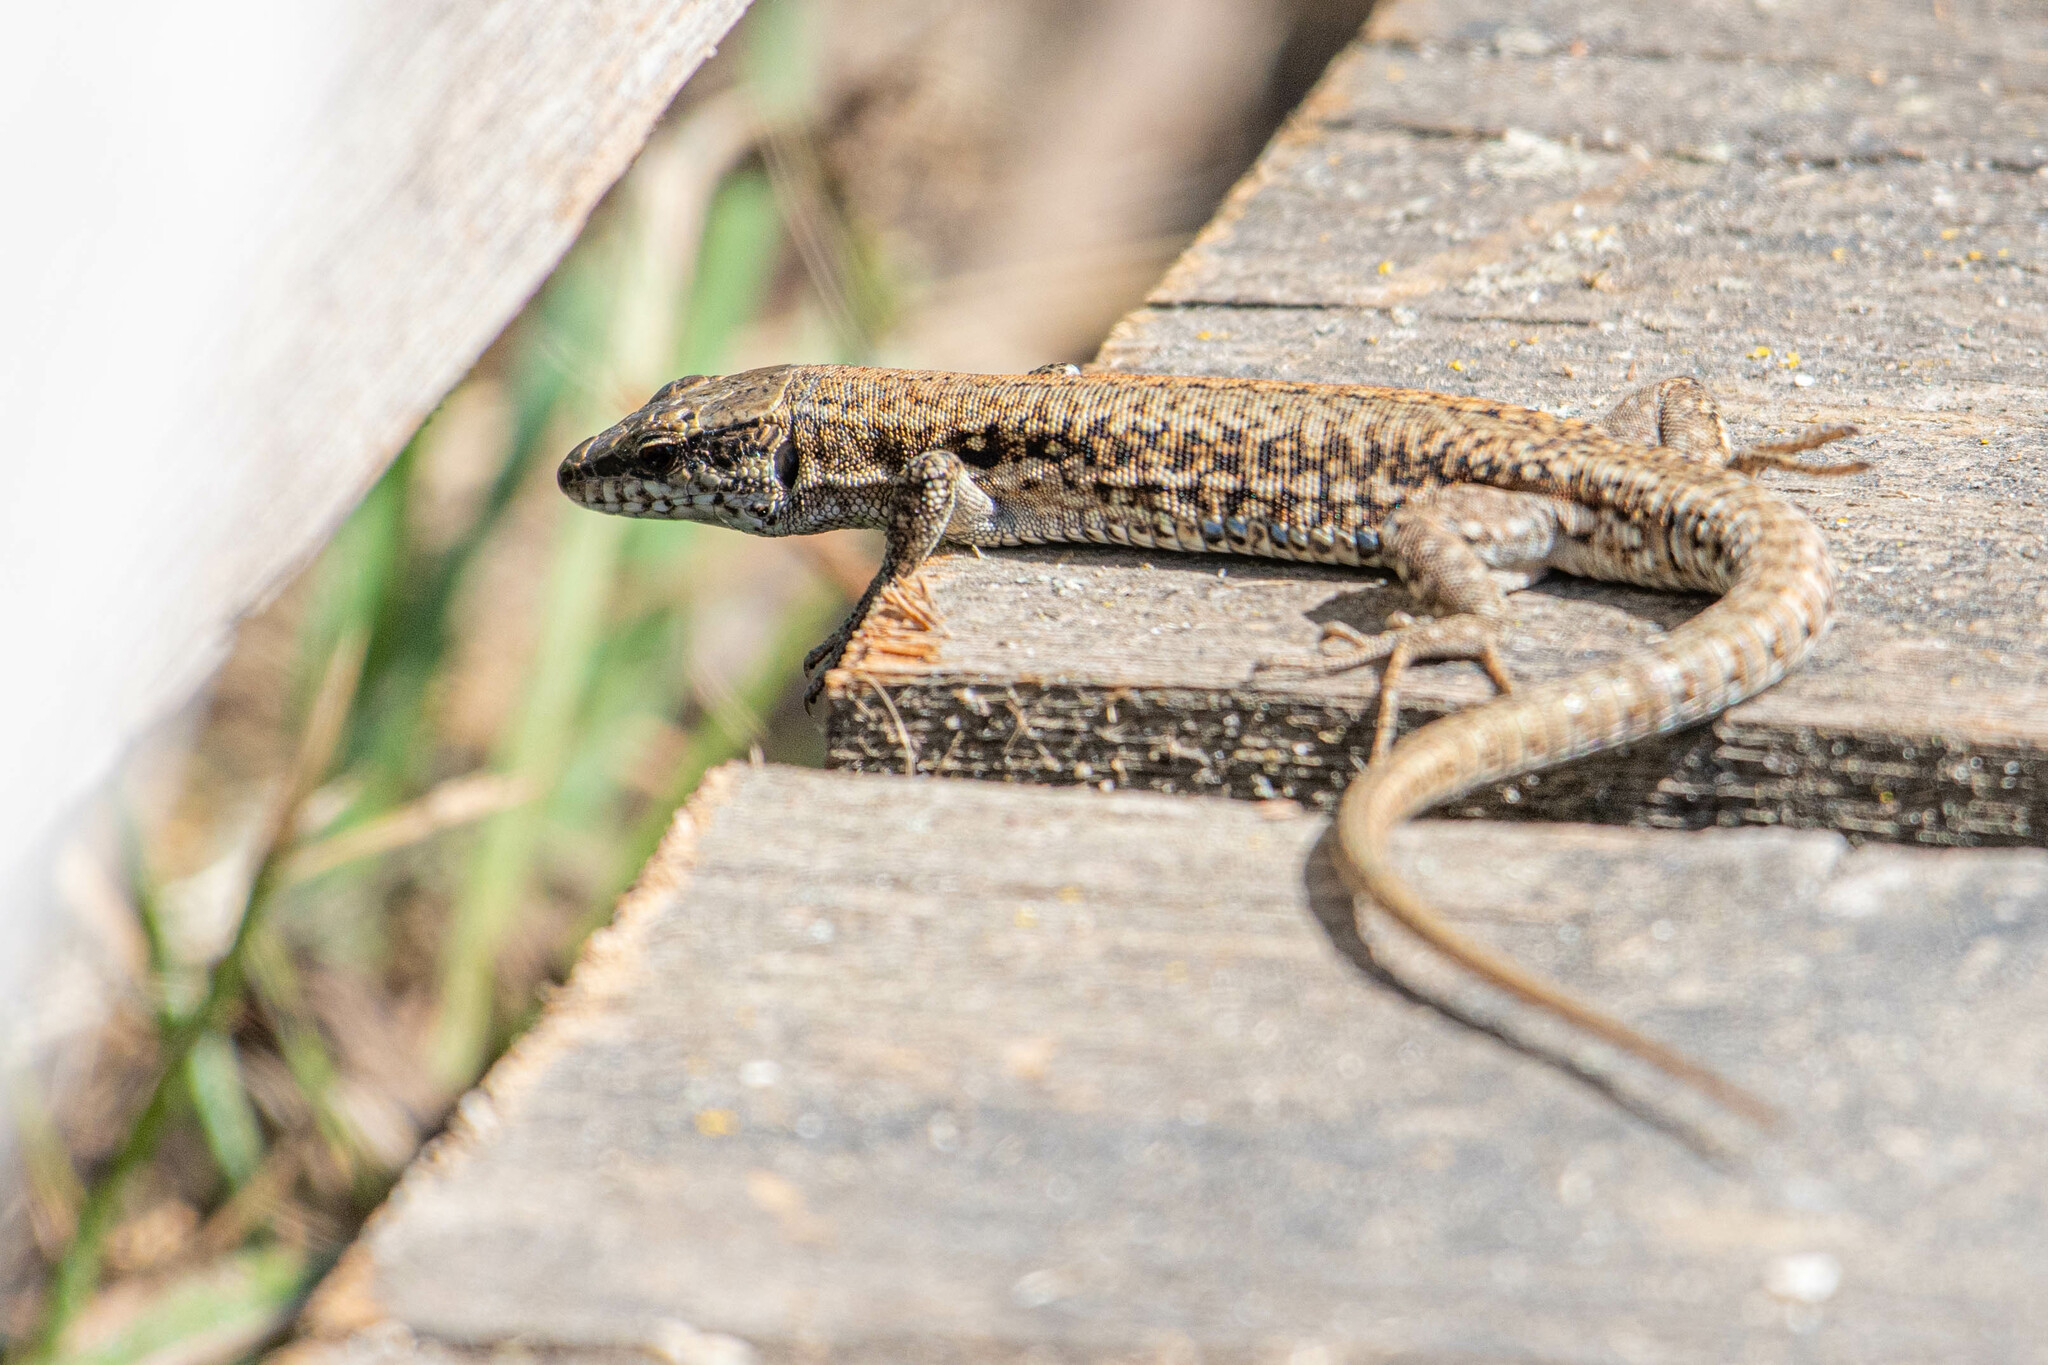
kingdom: Animalia
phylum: Chordata
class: Squamata
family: Lacertidae
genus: Podarcis
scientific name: Podarcis muralis
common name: Common wall lizard
